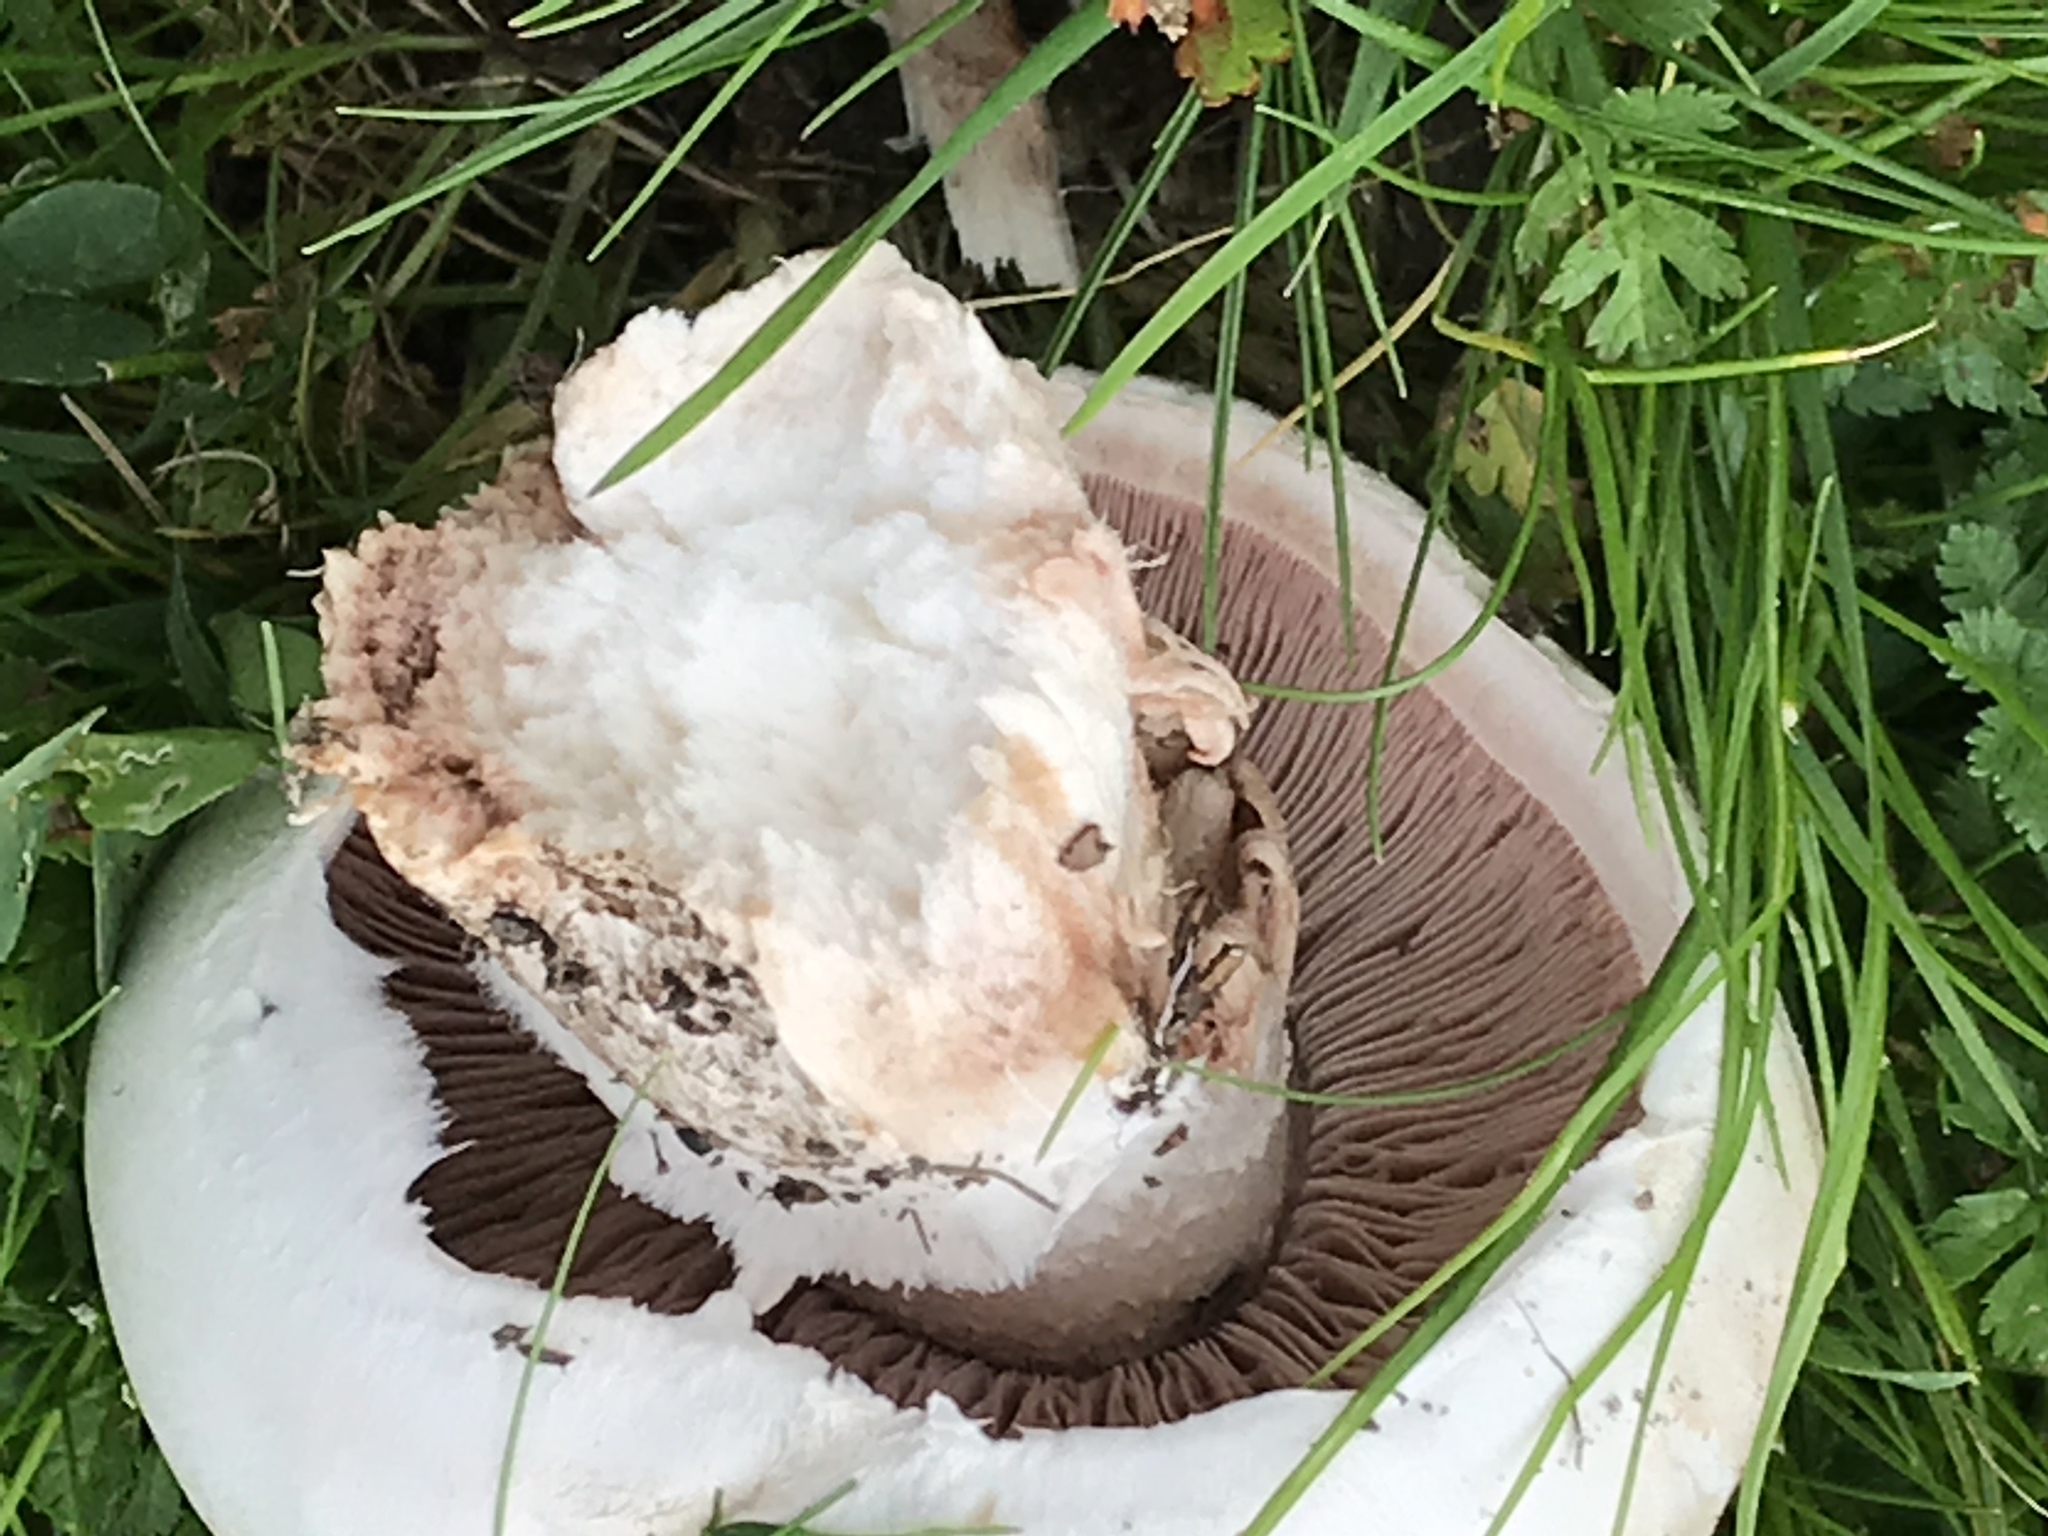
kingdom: Fungi
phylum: Basidiomycota
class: Agaricomycetes
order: Agaricales
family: Agaricaceae
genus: Agaricus
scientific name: Agaricus campestris
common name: Field mushroom
